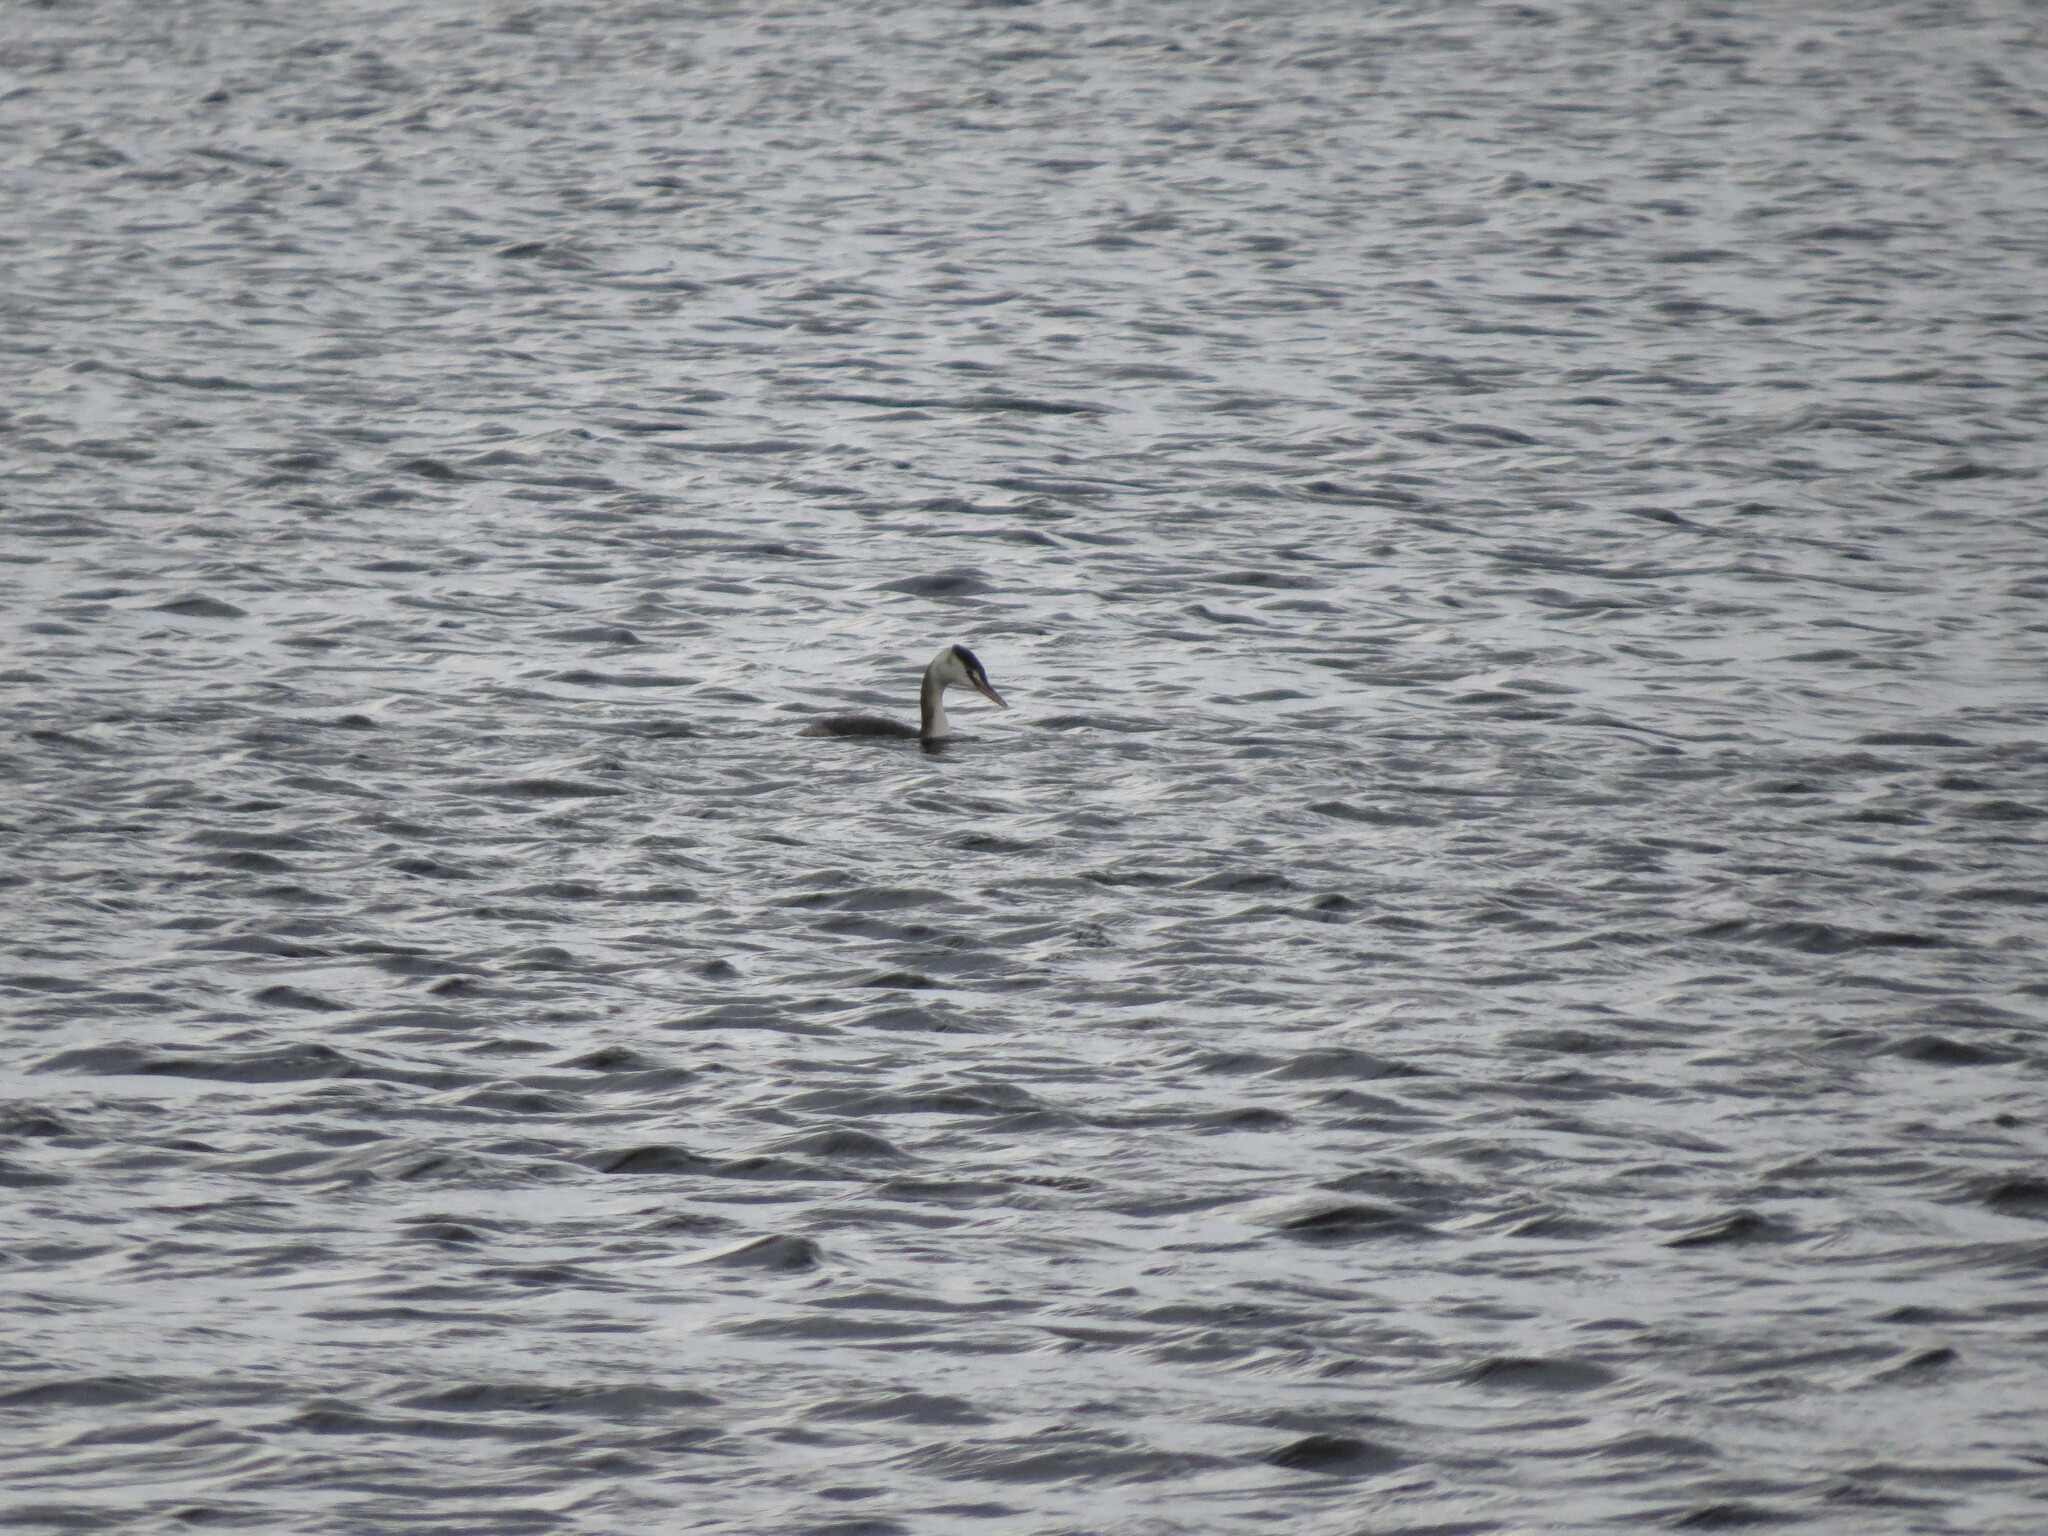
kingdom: Animalia
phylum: Chordata
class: Aves
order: Podicipediformes
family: Podicipedidae
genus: Podiceps
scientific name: Podiceps cristatus
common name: Great crested grebe
